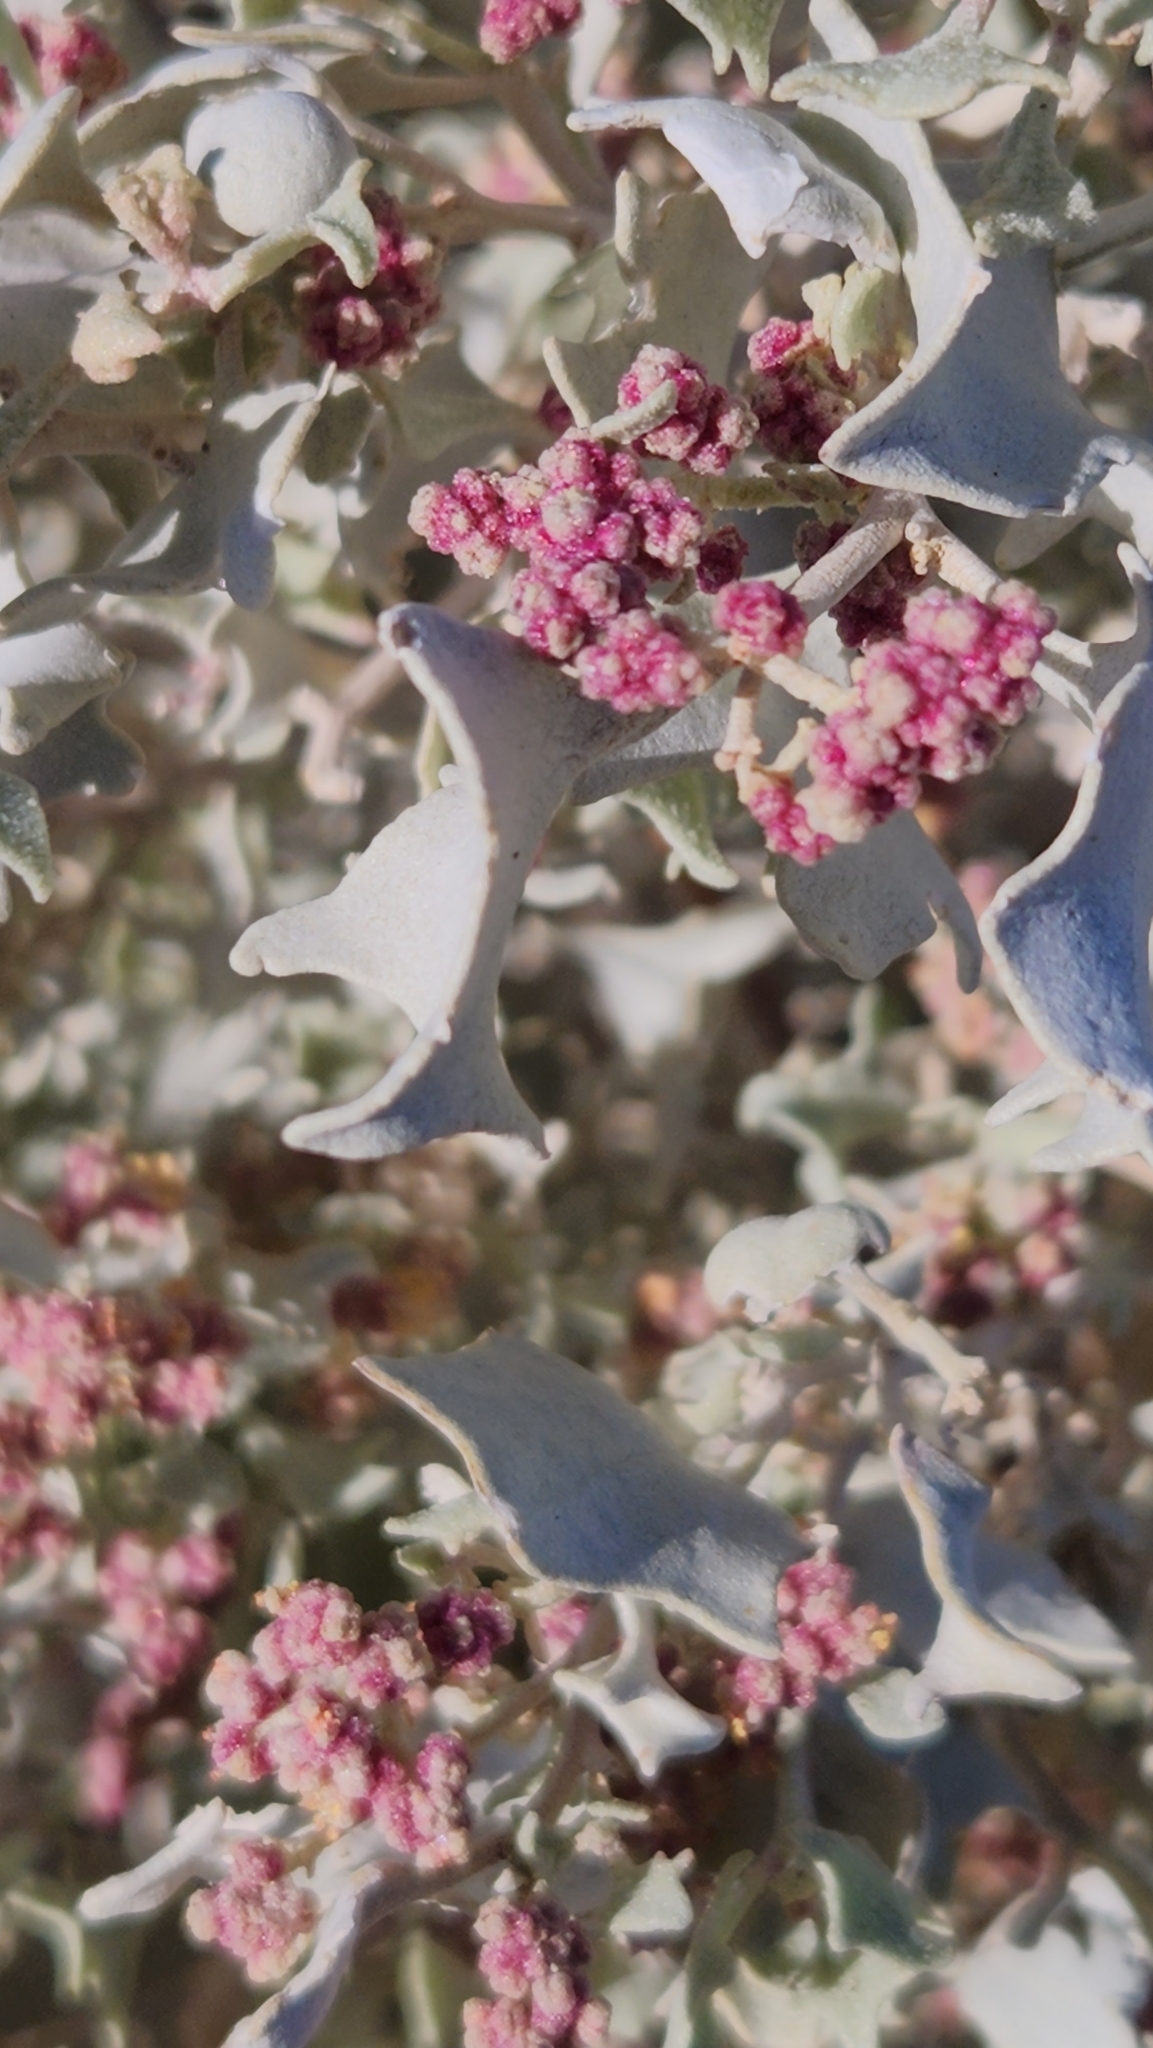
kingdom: Plantae
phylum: Tracheophyta
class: Magnoliopsida
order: Caryophyllales
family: Amaranthaceae
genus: Atriplex
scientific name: Atriplex hymenelytra
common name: Desert-holly
